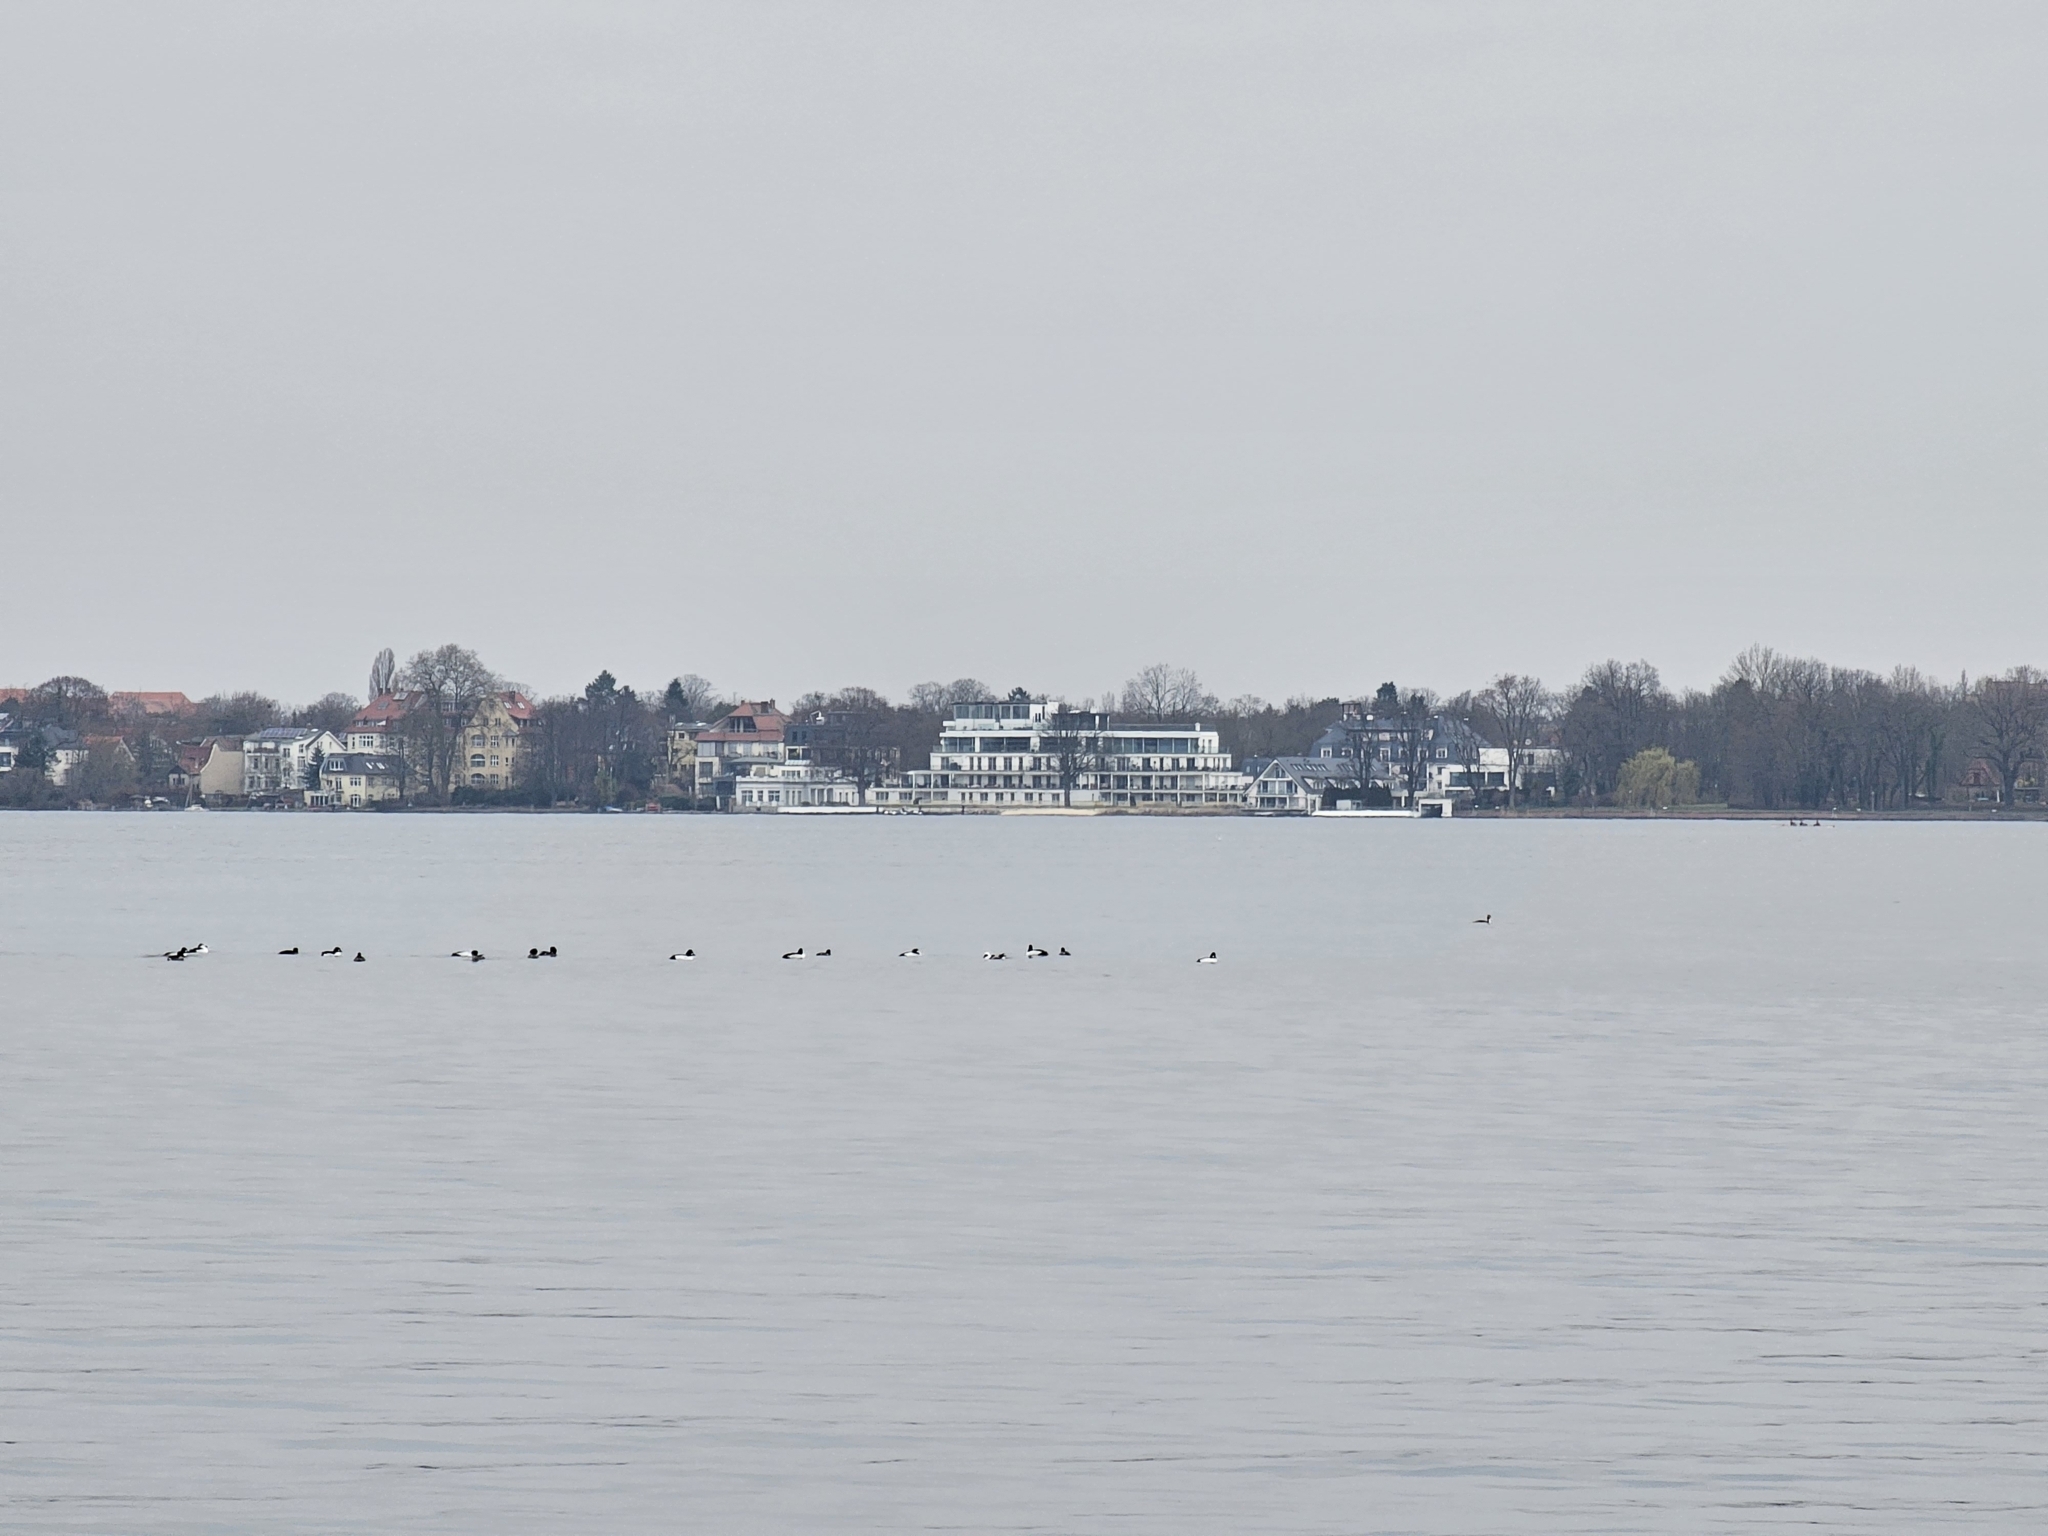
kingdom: Animalia
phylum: Chordata
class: Aves
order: Anseriformes
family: Anatidae
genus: Bucephala
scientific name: Bucephala clangula
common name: Common goldeneye
